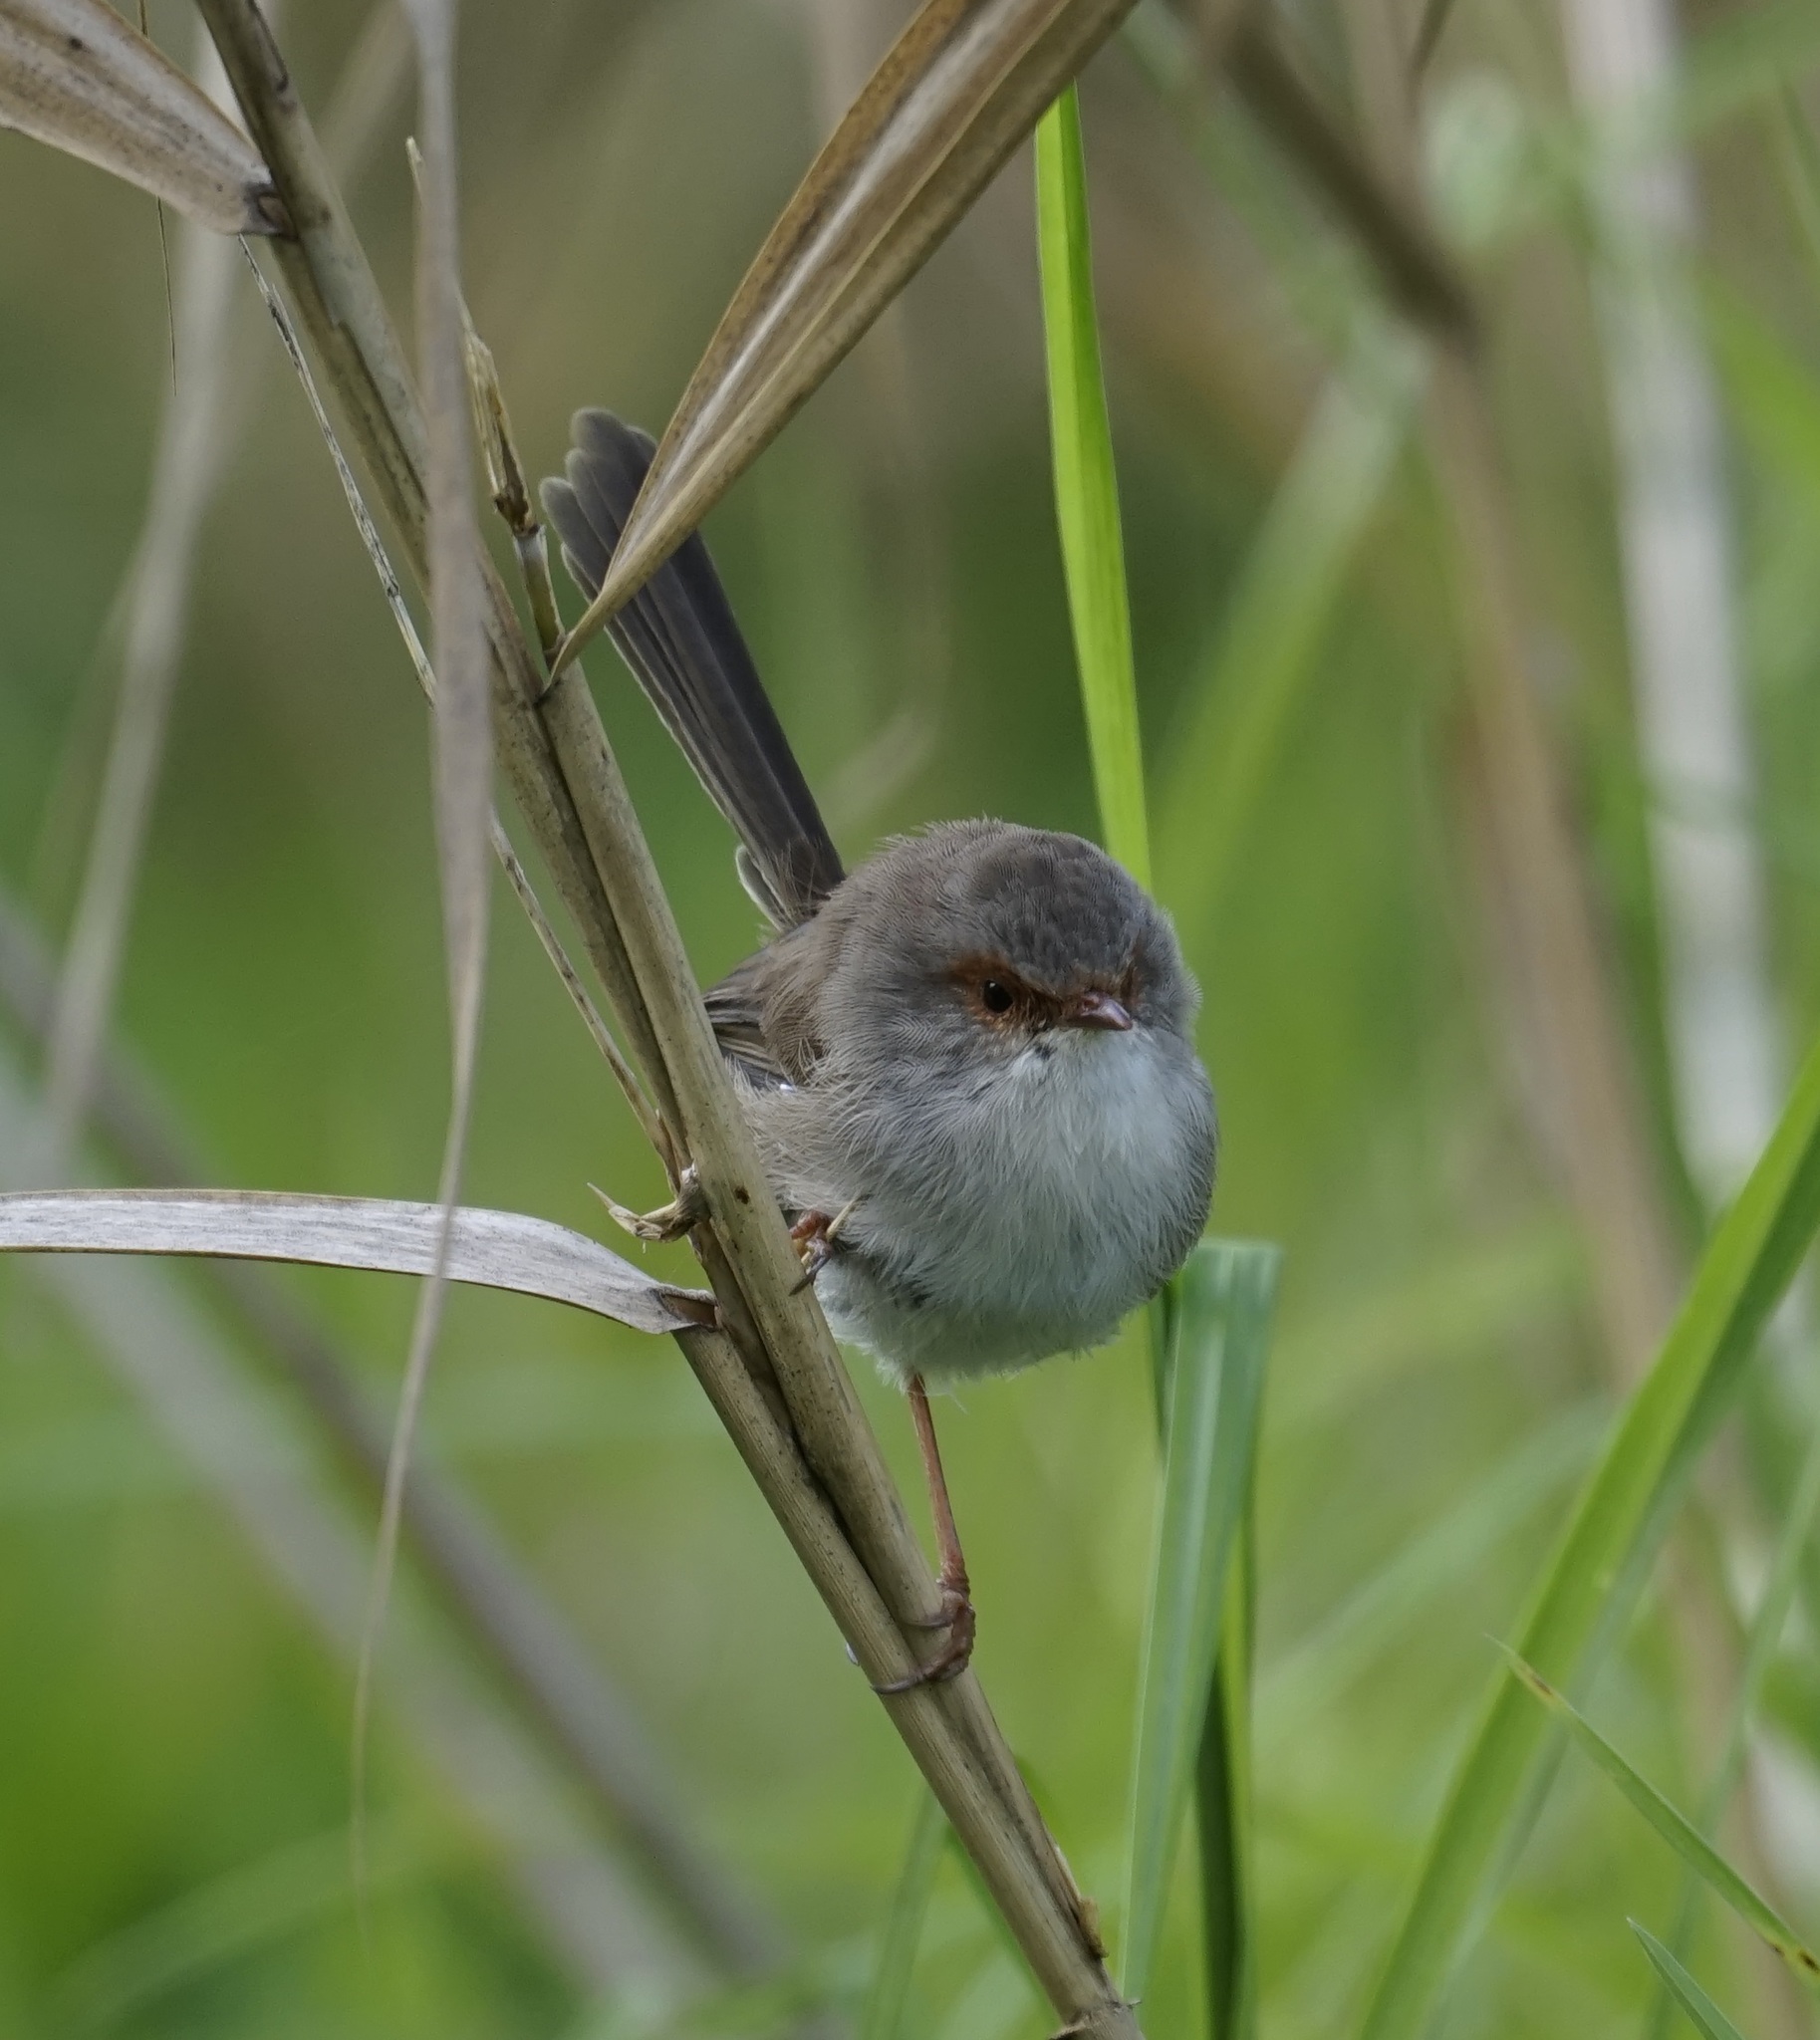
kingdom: Animalia
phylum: Chordata
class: Aves
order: Passeriformes
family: Maluridae
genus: Malurus
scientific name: Malurus cyaneus
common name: Superb fairywren
